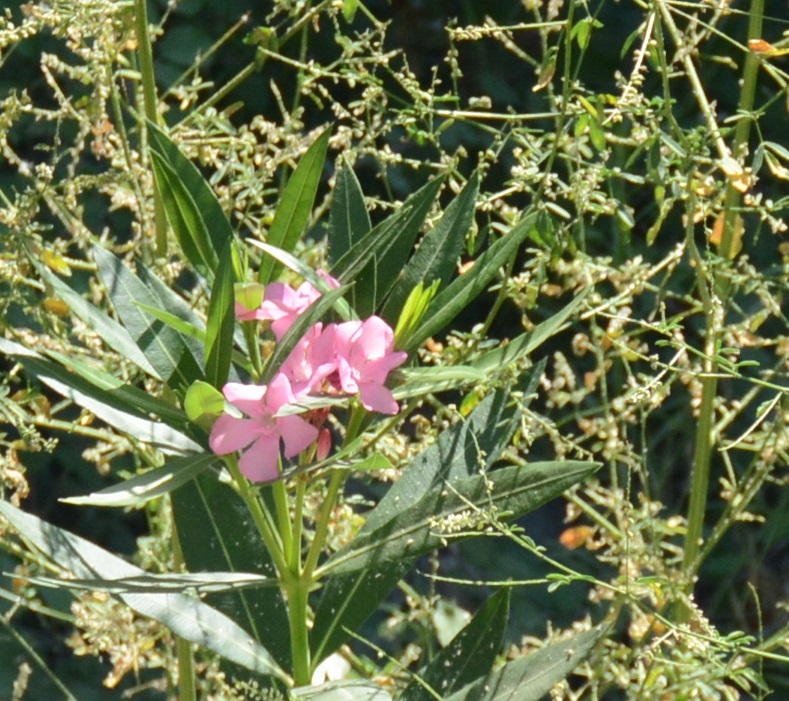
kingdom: Plantae
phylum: Tracheophyta
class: Magnoliopsida
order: Gentianales
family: Apocynaceae
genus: Nerium
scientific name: Nerium oleander
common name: Oleander
